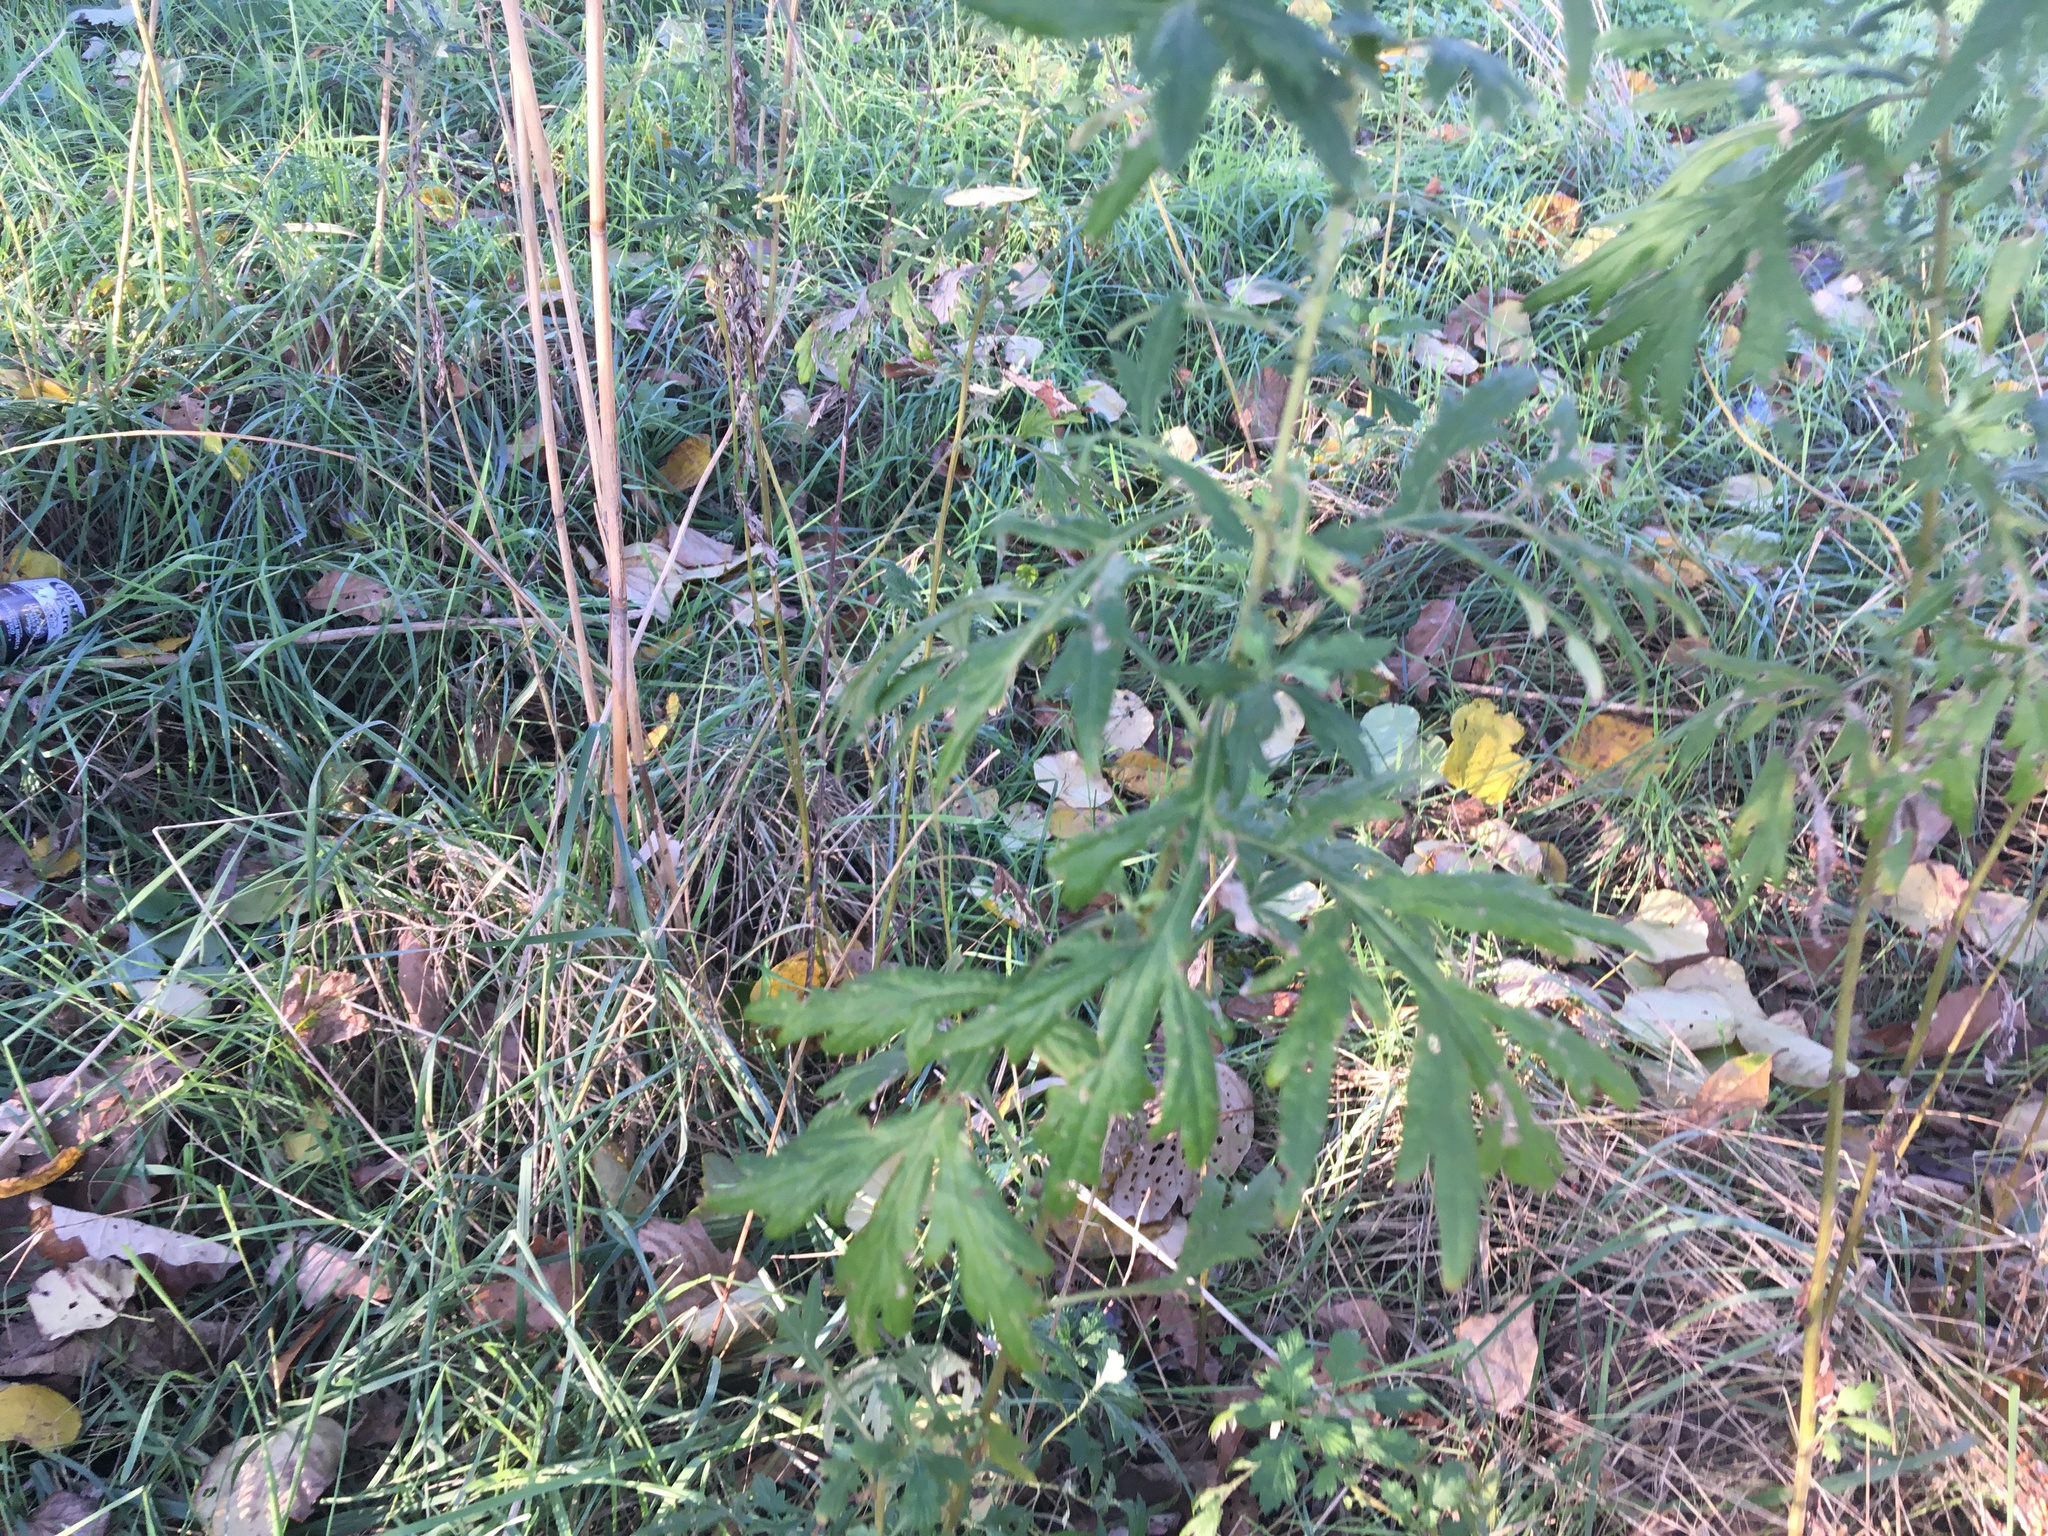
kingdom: Plantae
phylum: Tracheophyta
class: Magnoliopsida
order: Asterales
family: Asteraceae
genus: Artemisia
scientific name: Artemisia vulgaris
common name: Mugwort
